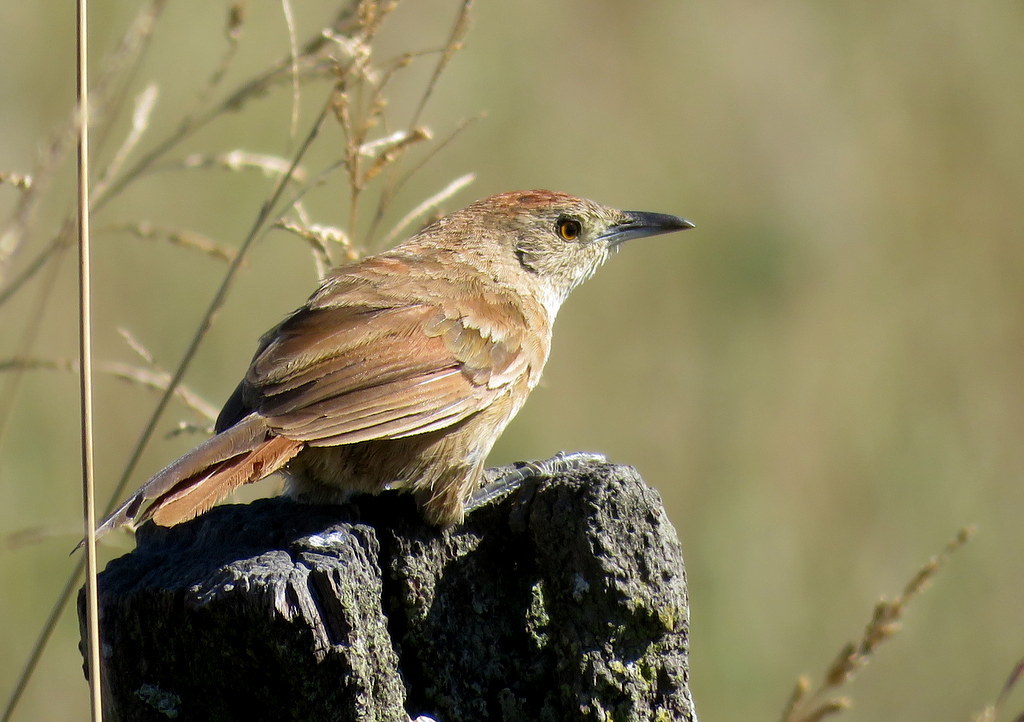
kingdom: Animalia
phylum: Chordata
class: Aves
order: Passeriformes
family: Furnariidae
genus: Phacellodomus
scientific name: Phacellodomus striaticollis
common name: Freckle-breasted thornbird
